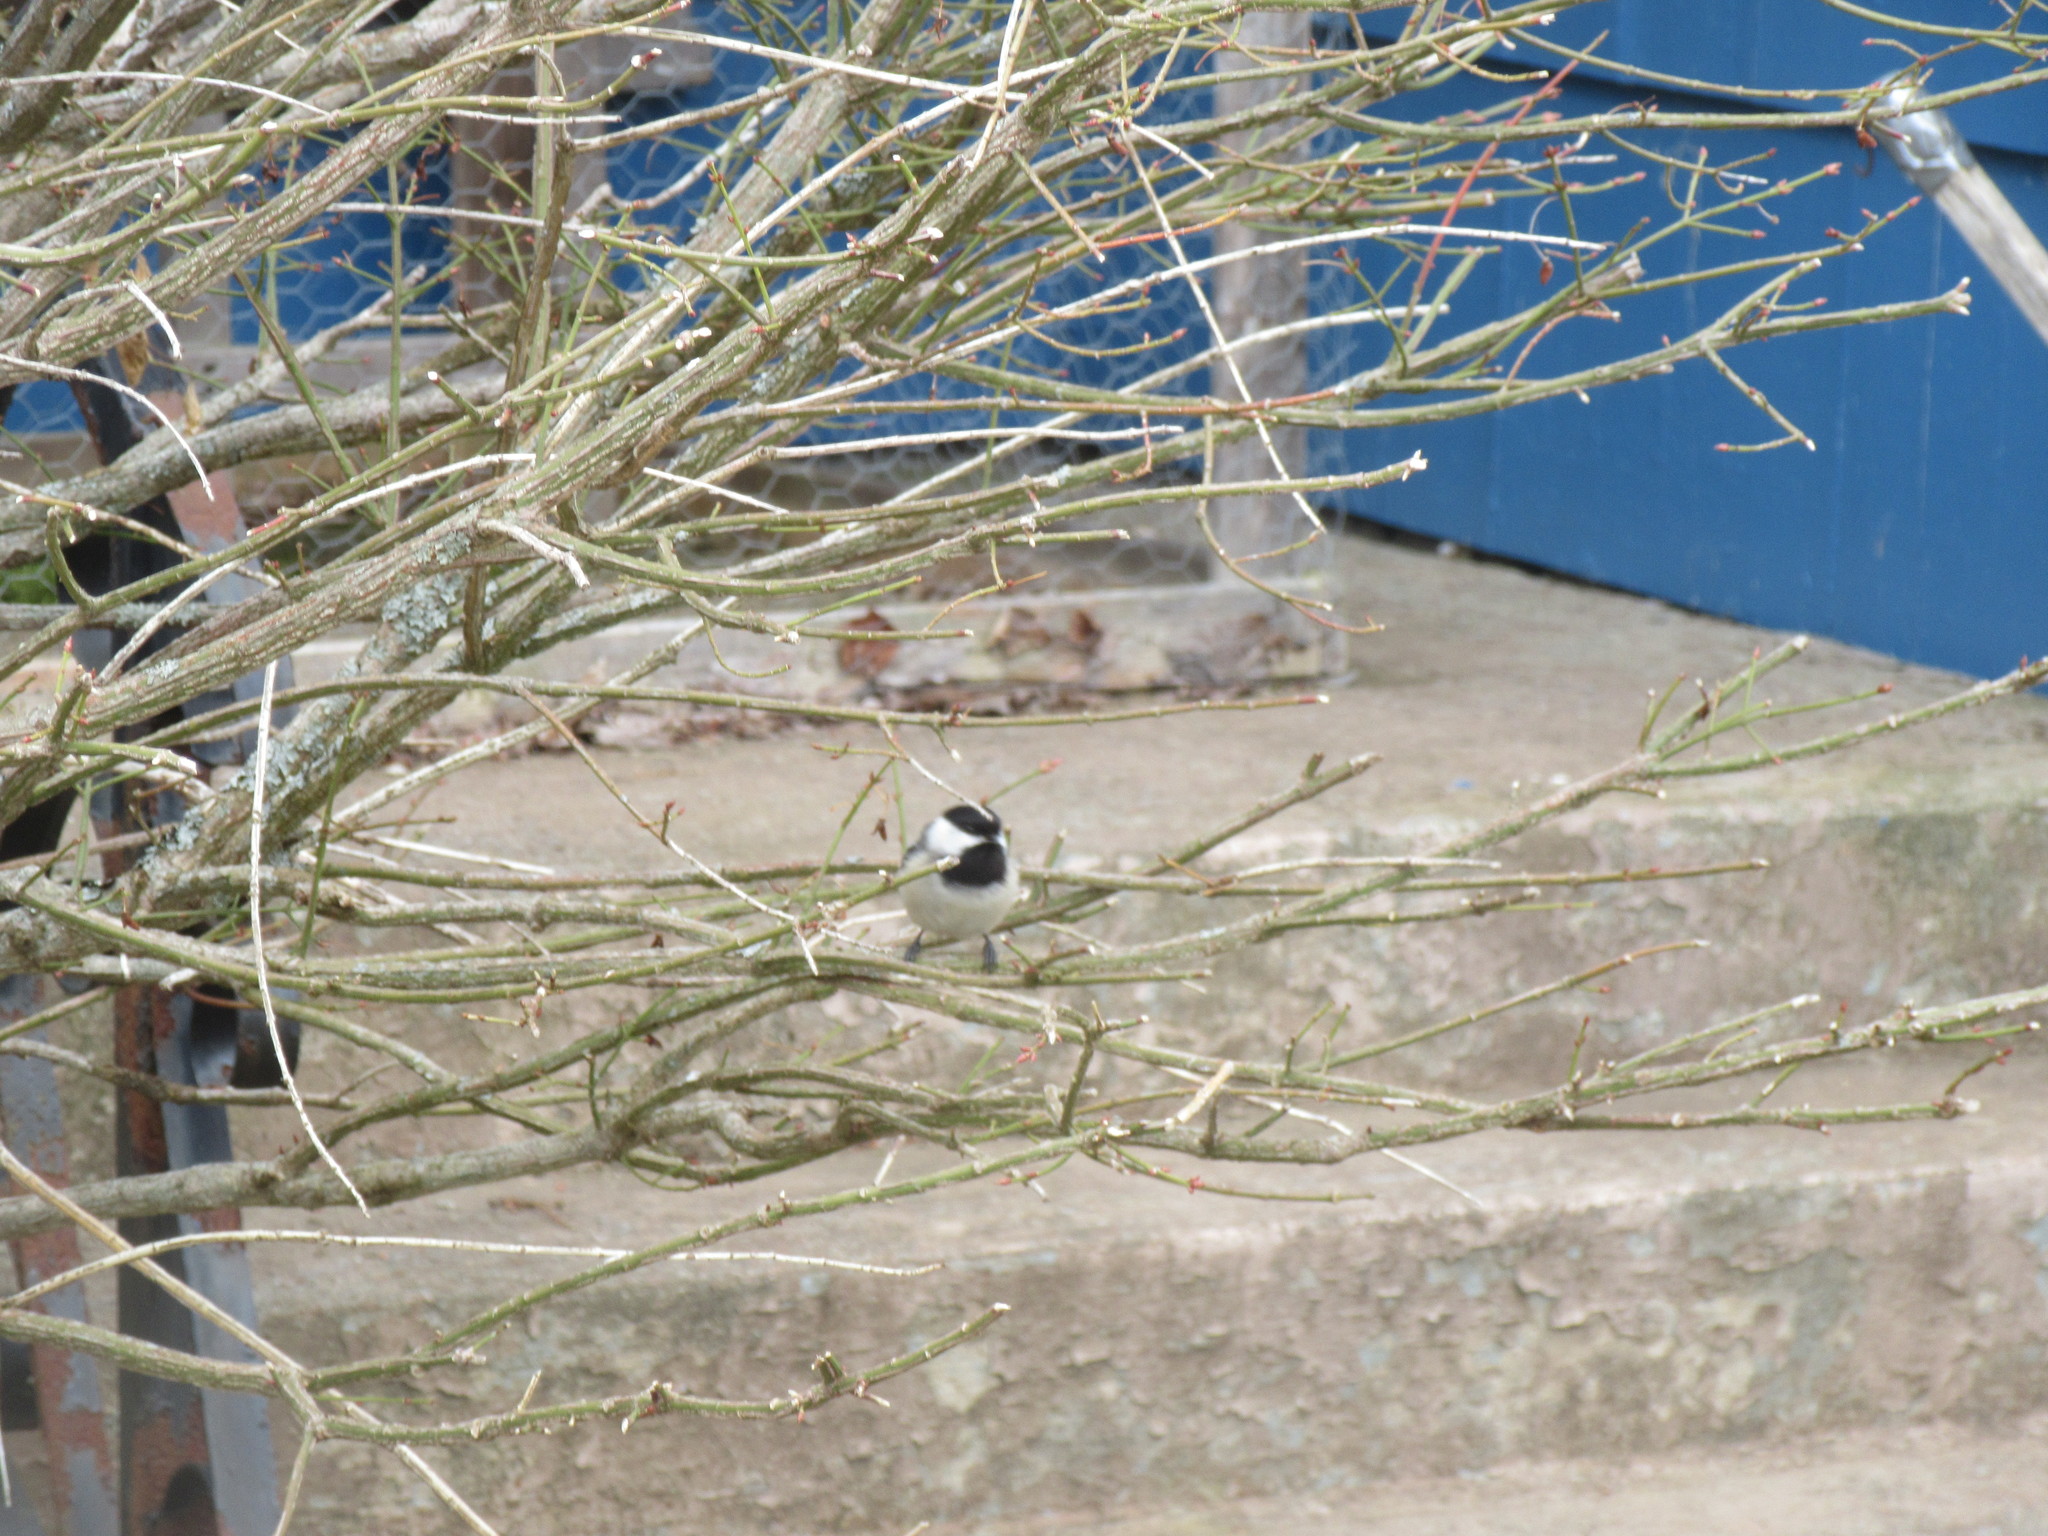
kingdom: Animalia
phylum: Chordata
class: Aves
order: Passeriformes
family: Paridae
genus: Poecile
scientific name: Poecile atricapillus
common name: Black-capped chickadee
